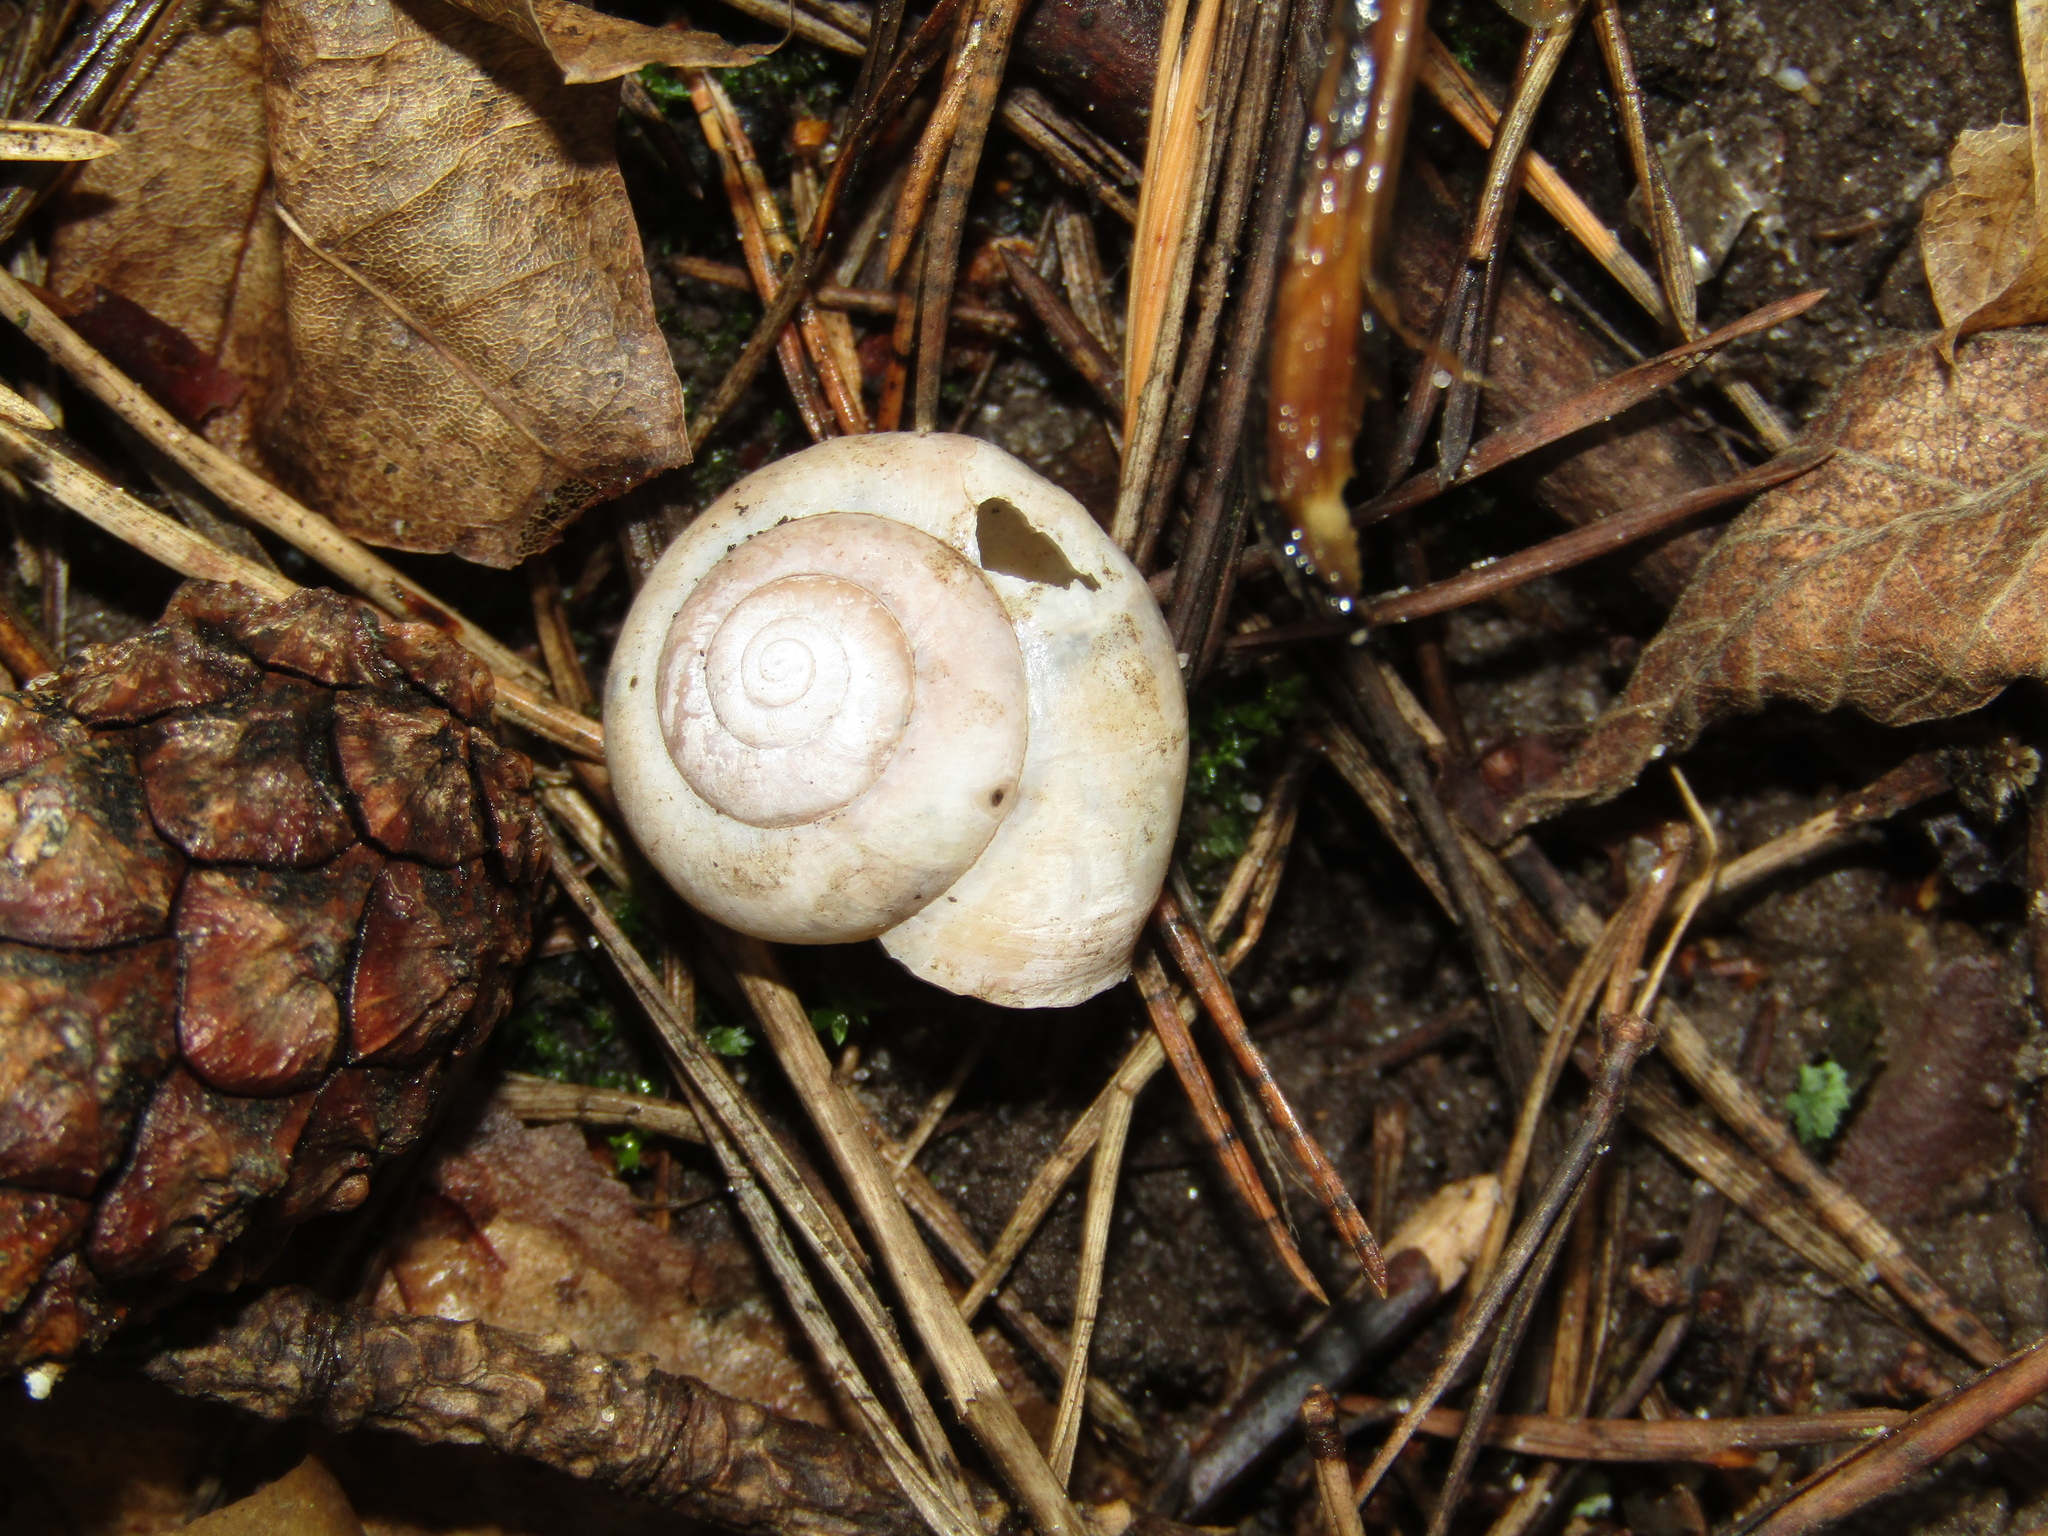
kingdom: Animalia
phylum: Mollusca
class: Gastropoda
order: Stylommatophora
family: Camaenidae
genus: Fruticicola
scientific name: Fruticicola fruticum
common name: Bush snail
